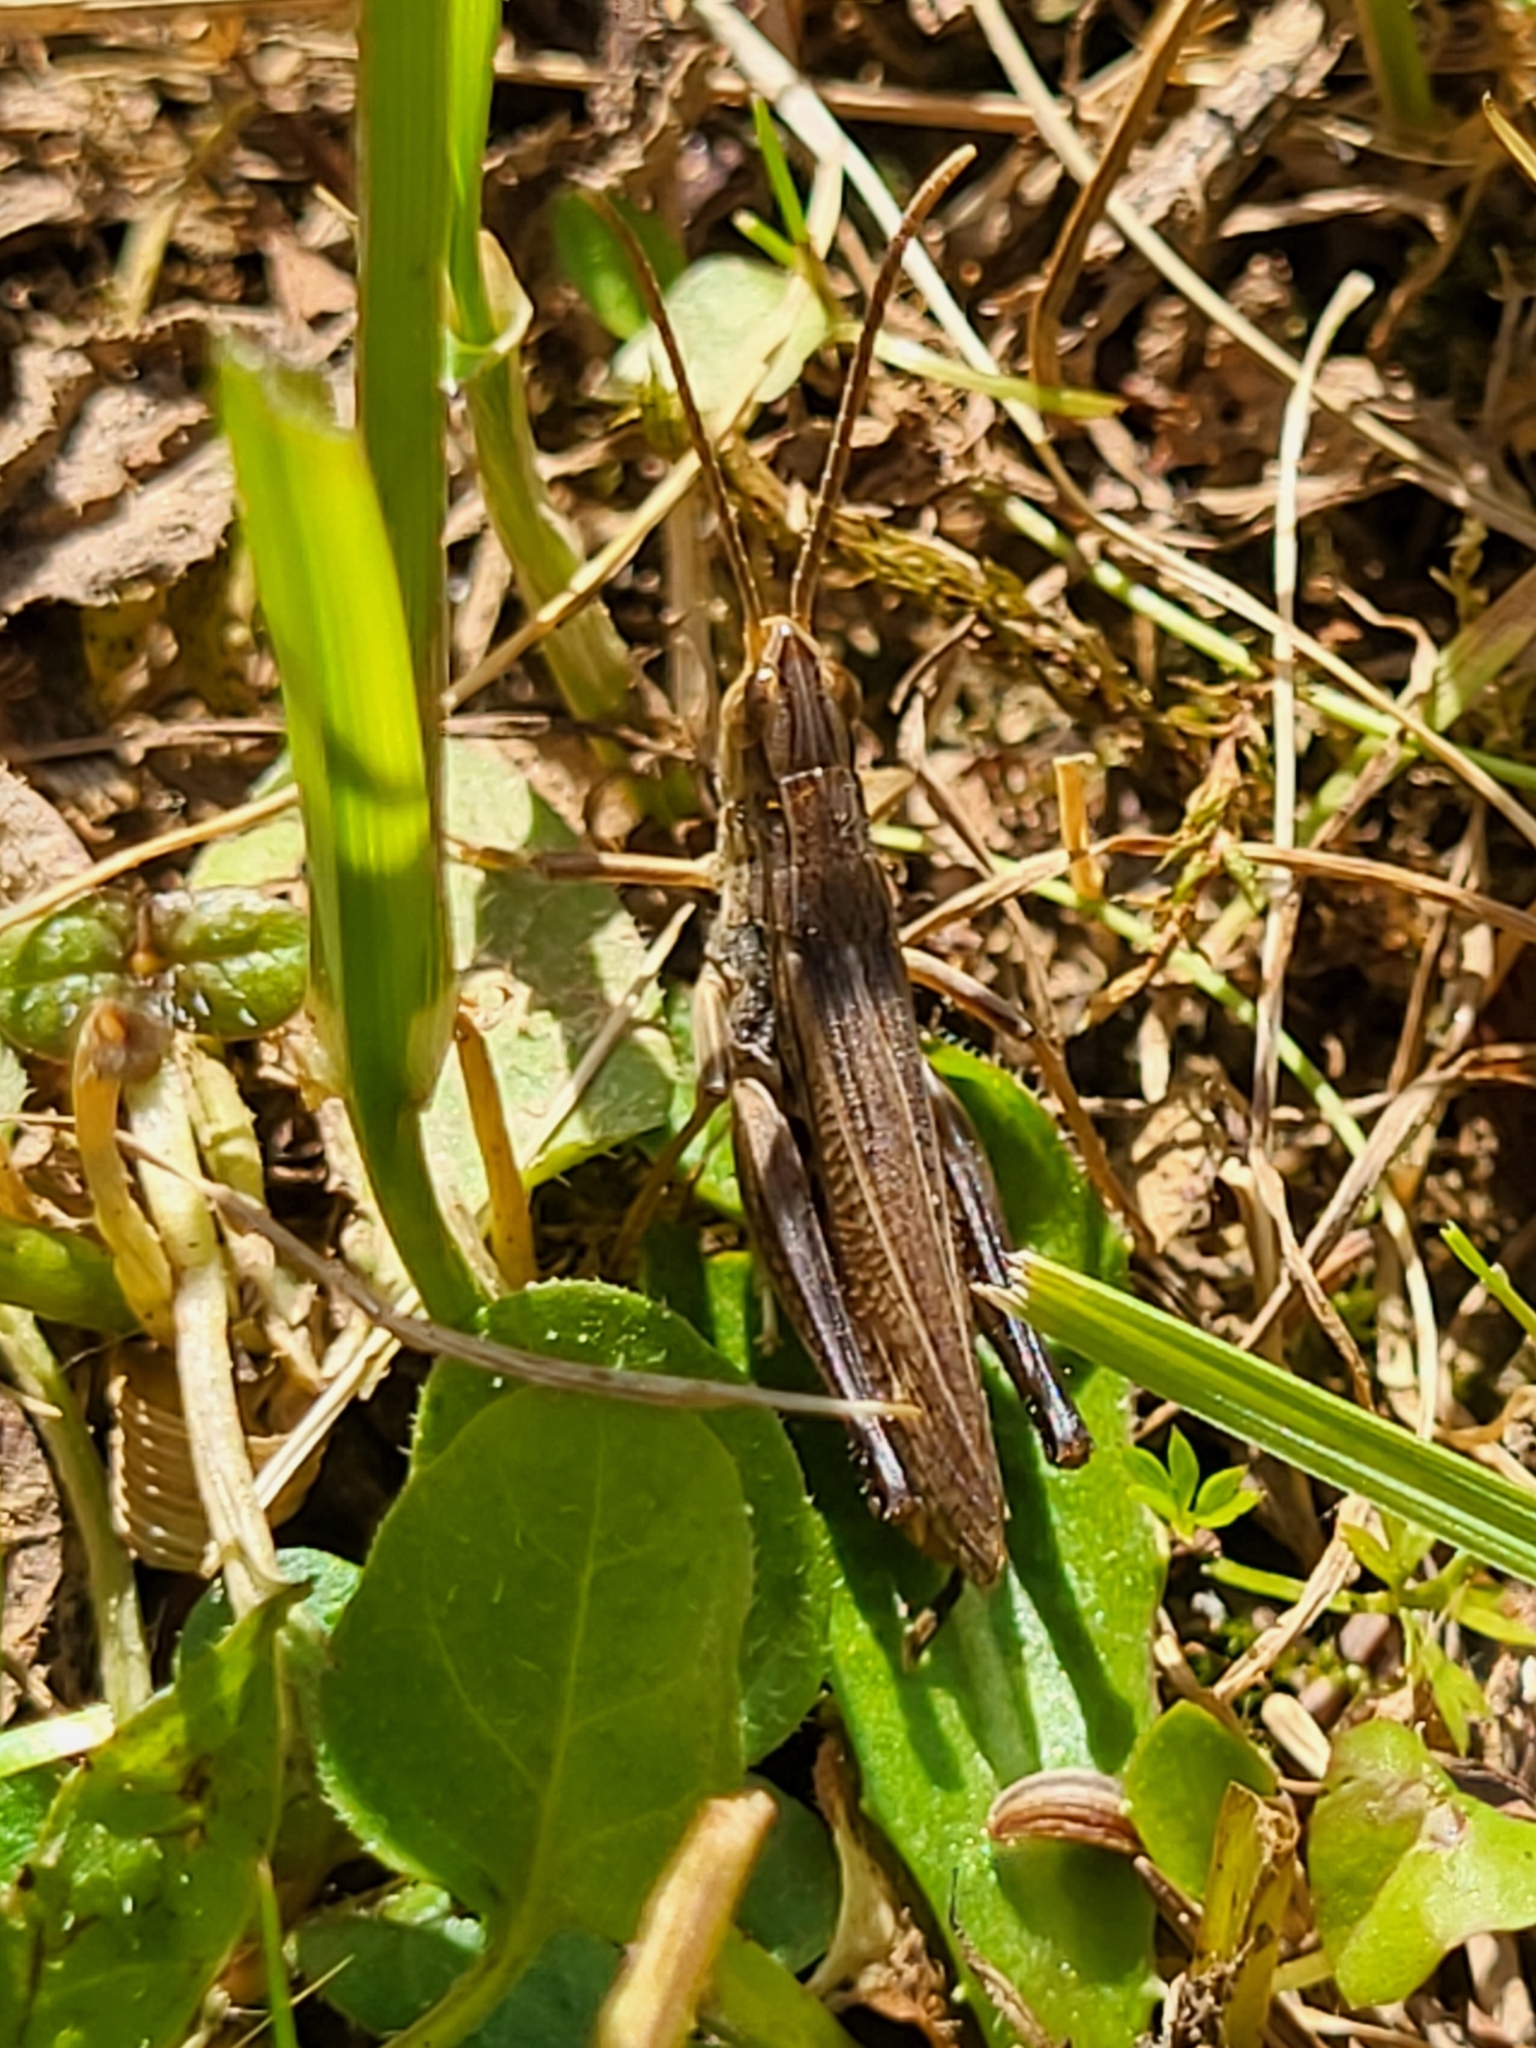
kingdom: Animalia
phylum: Arthropoda
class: Insecta
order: Orthoptera
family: Acrididae
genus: Chorthippus
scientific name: Chorthippus oschei
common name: Carpathian dancing grasshopper
